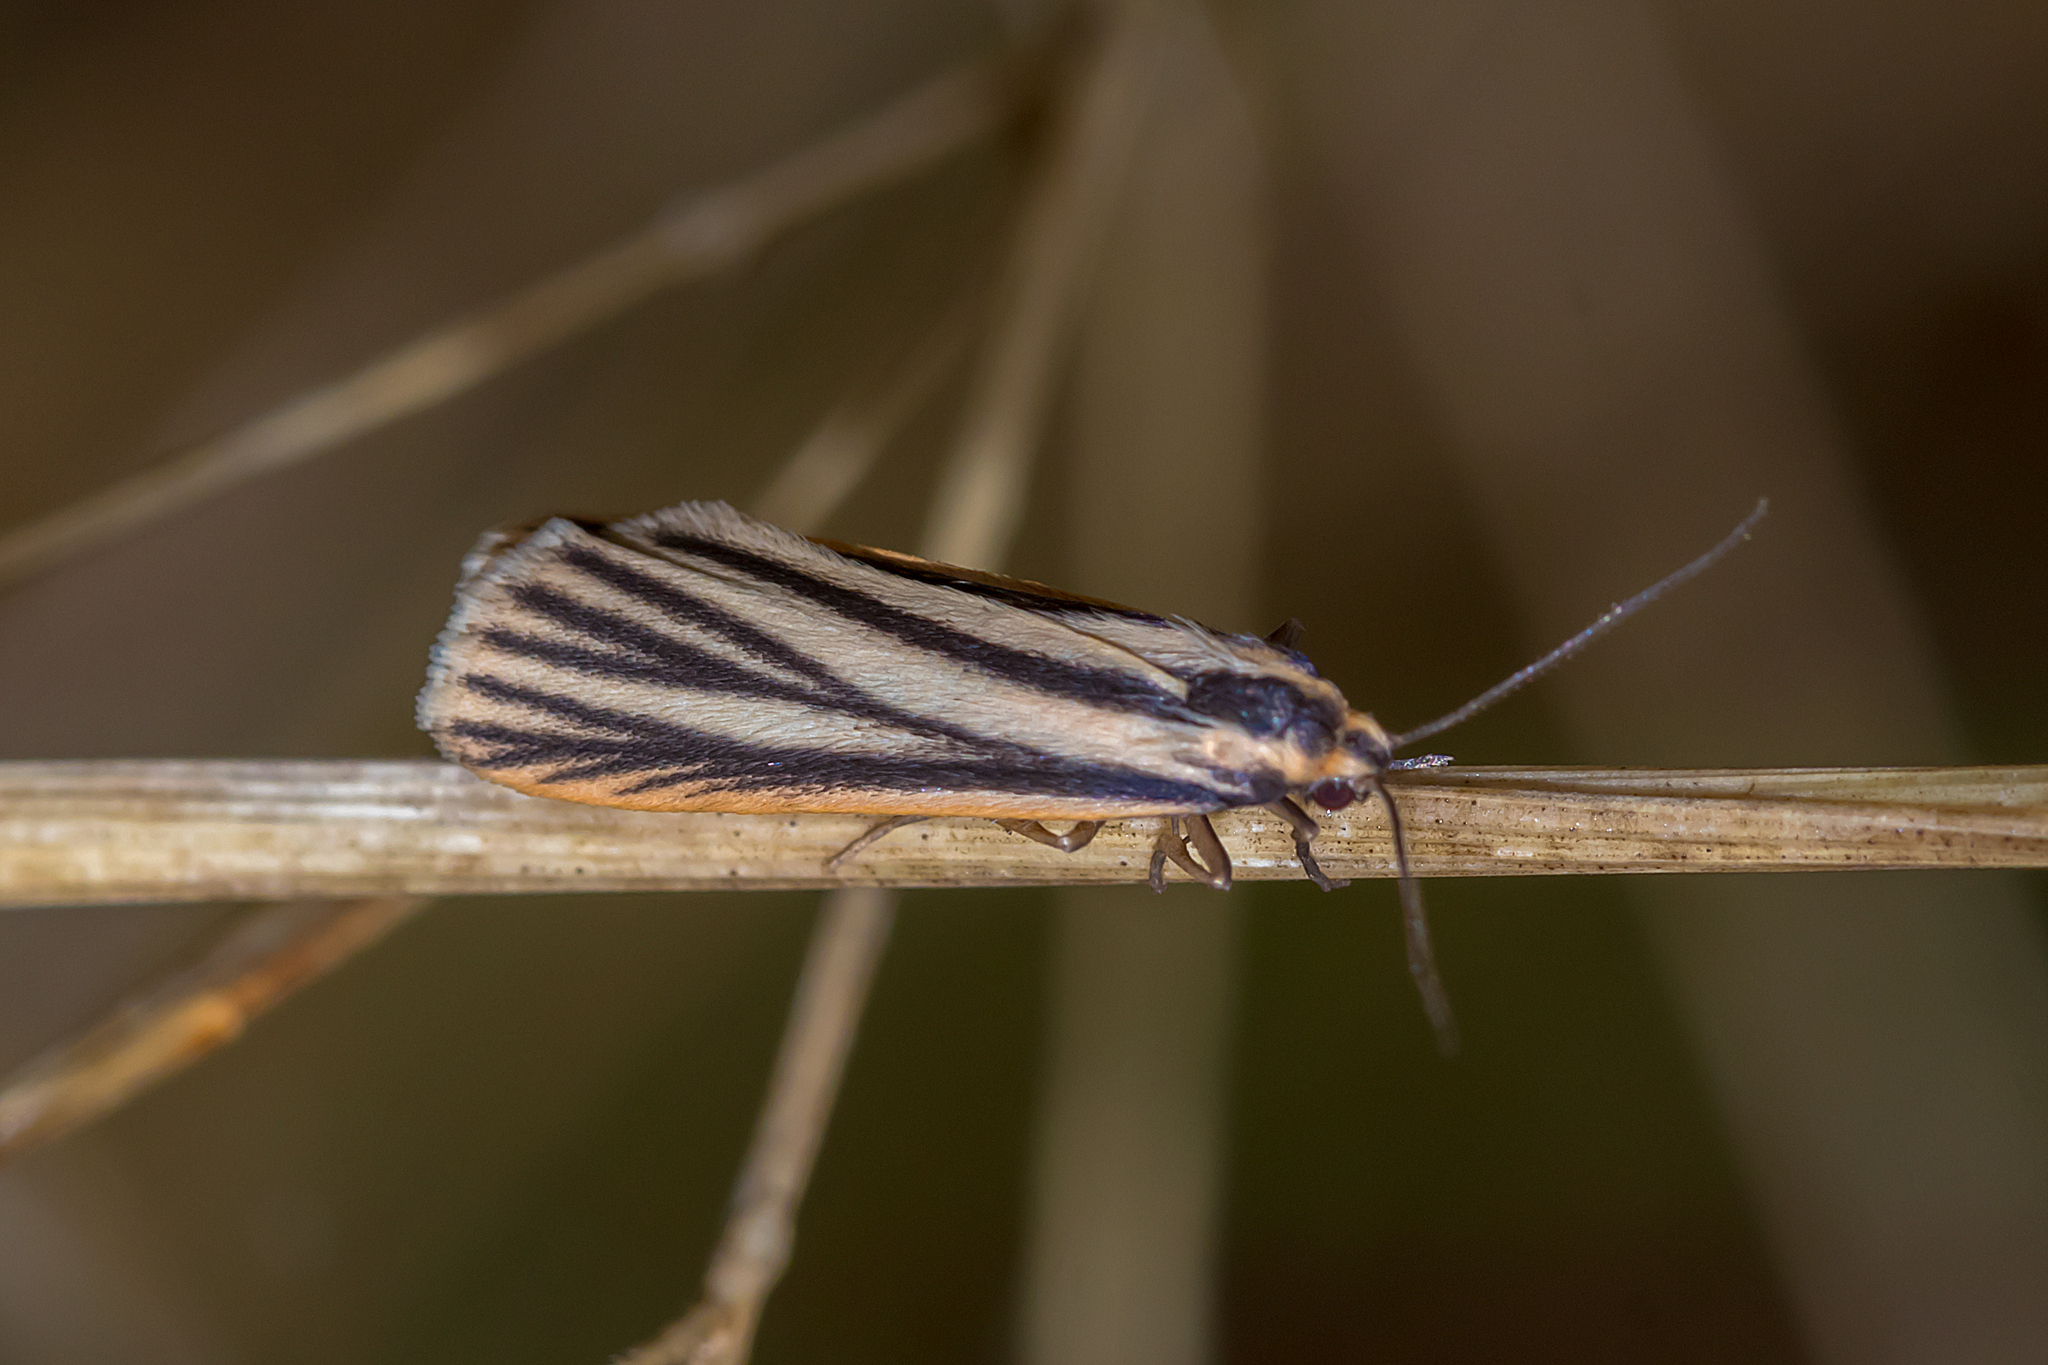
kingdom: Animalia
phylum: Arthropoda
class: Insecta
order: Lepidoptera
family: Erebidae
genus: Phaeophlebosia
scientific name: Phaeophlebosia furcifera
